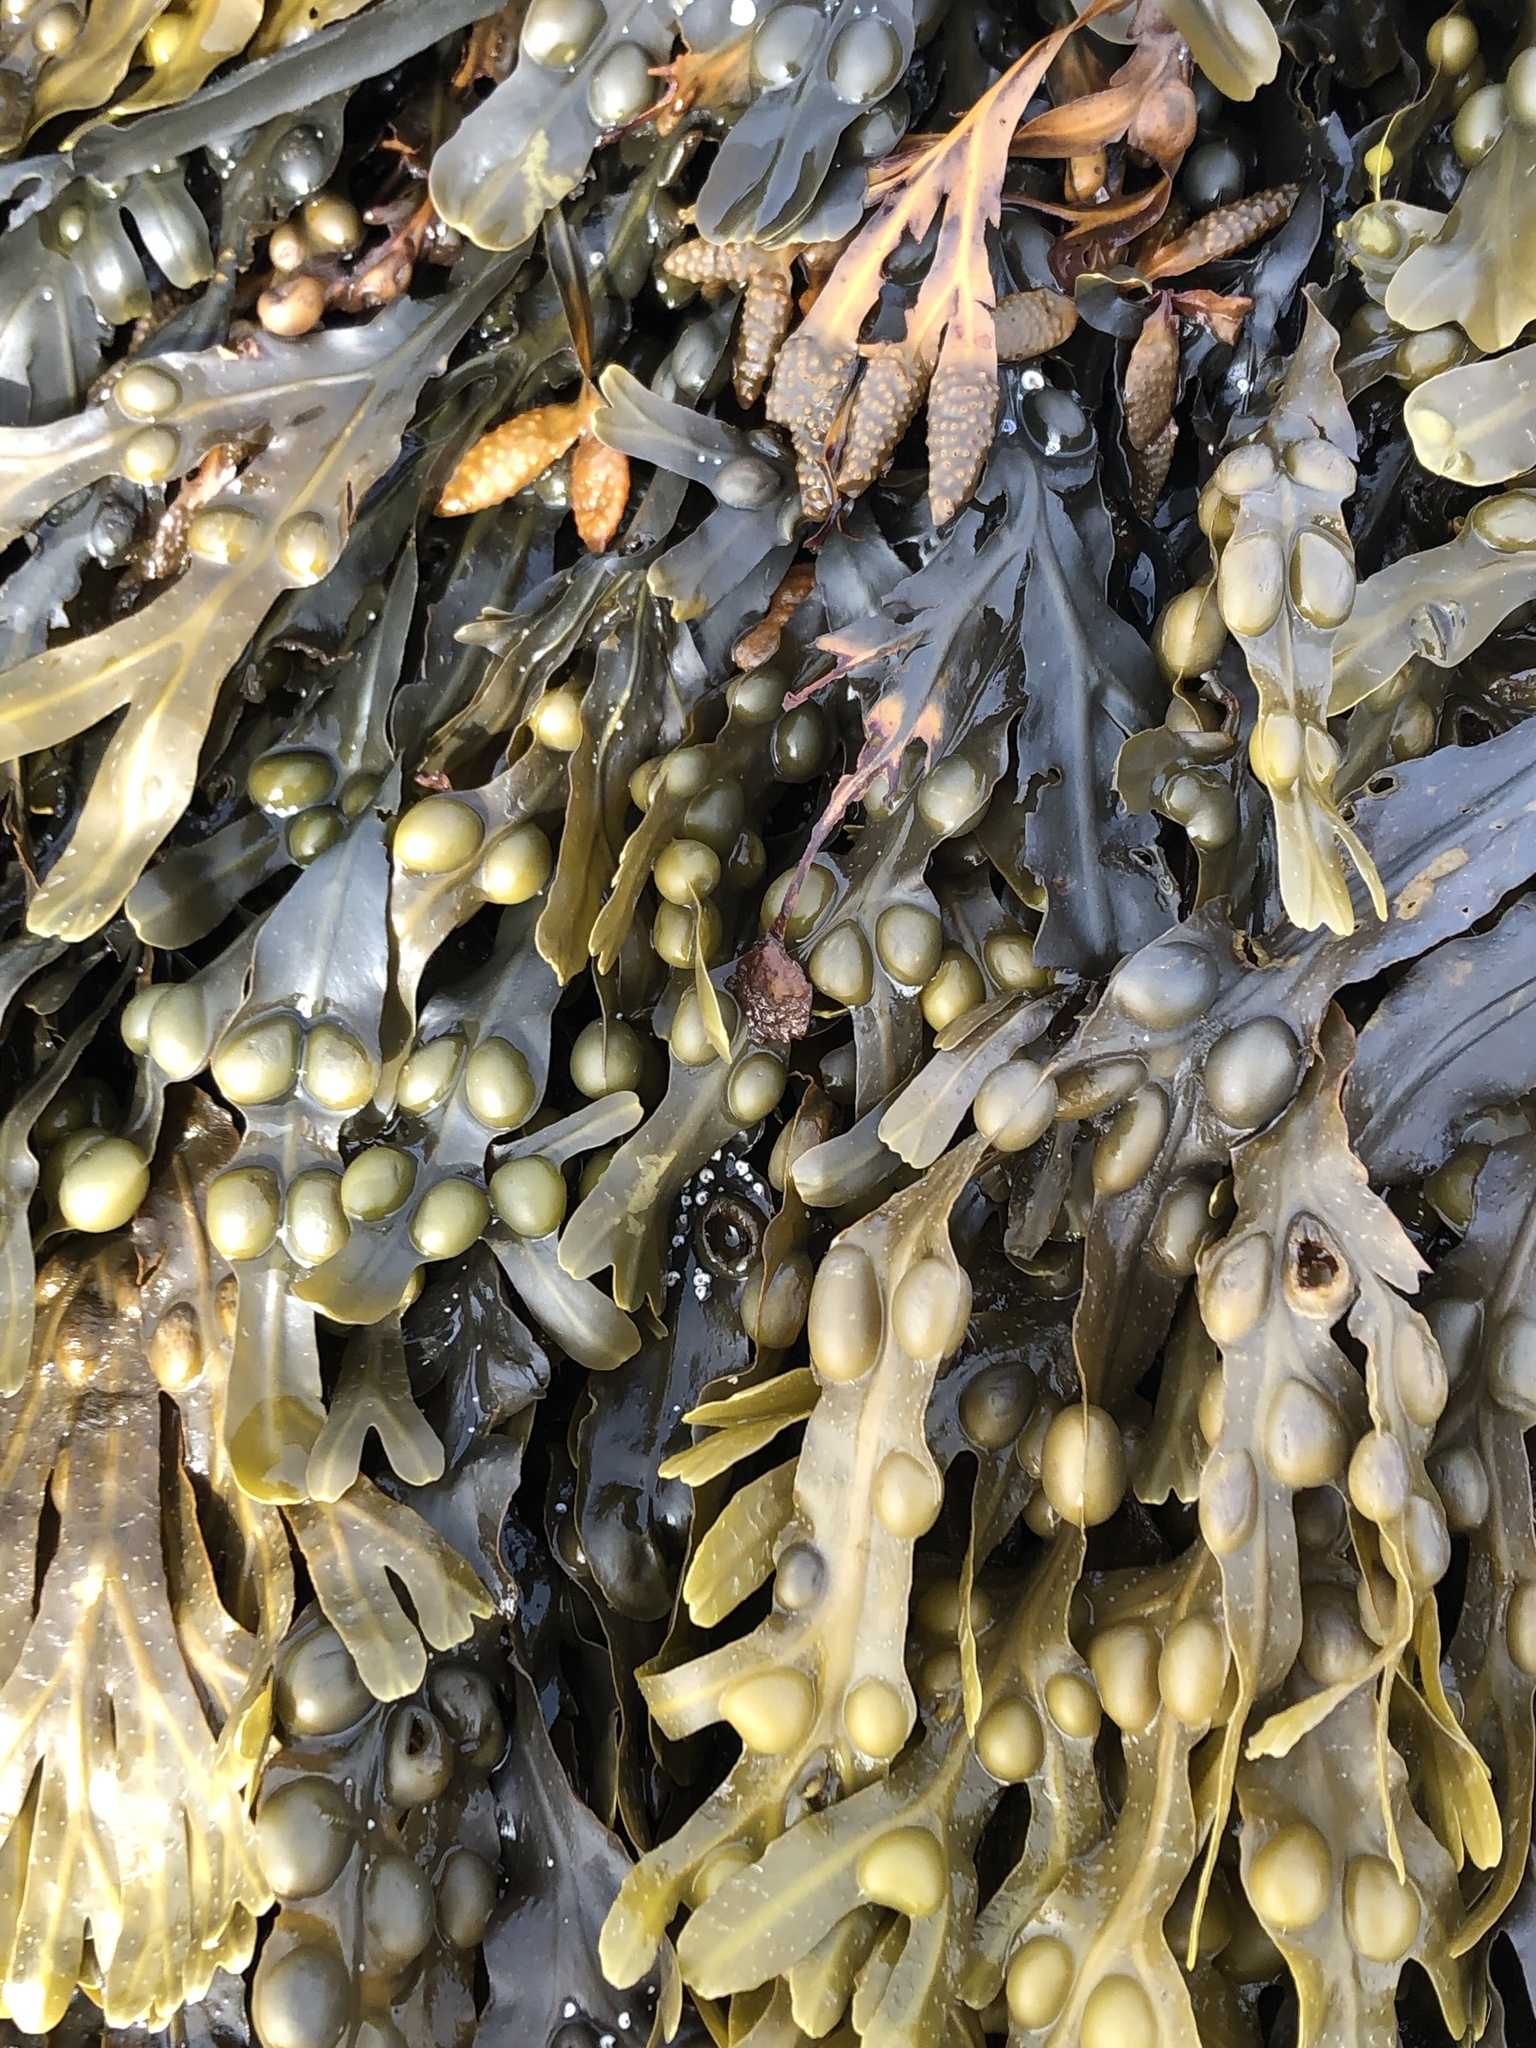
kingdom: Chromista
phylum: Ochrophyta
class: Phaeophyceae
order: Fucales
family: Fucaceae
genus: Fucus
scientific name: Fucus vesiculosus
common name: Bladder wrack
